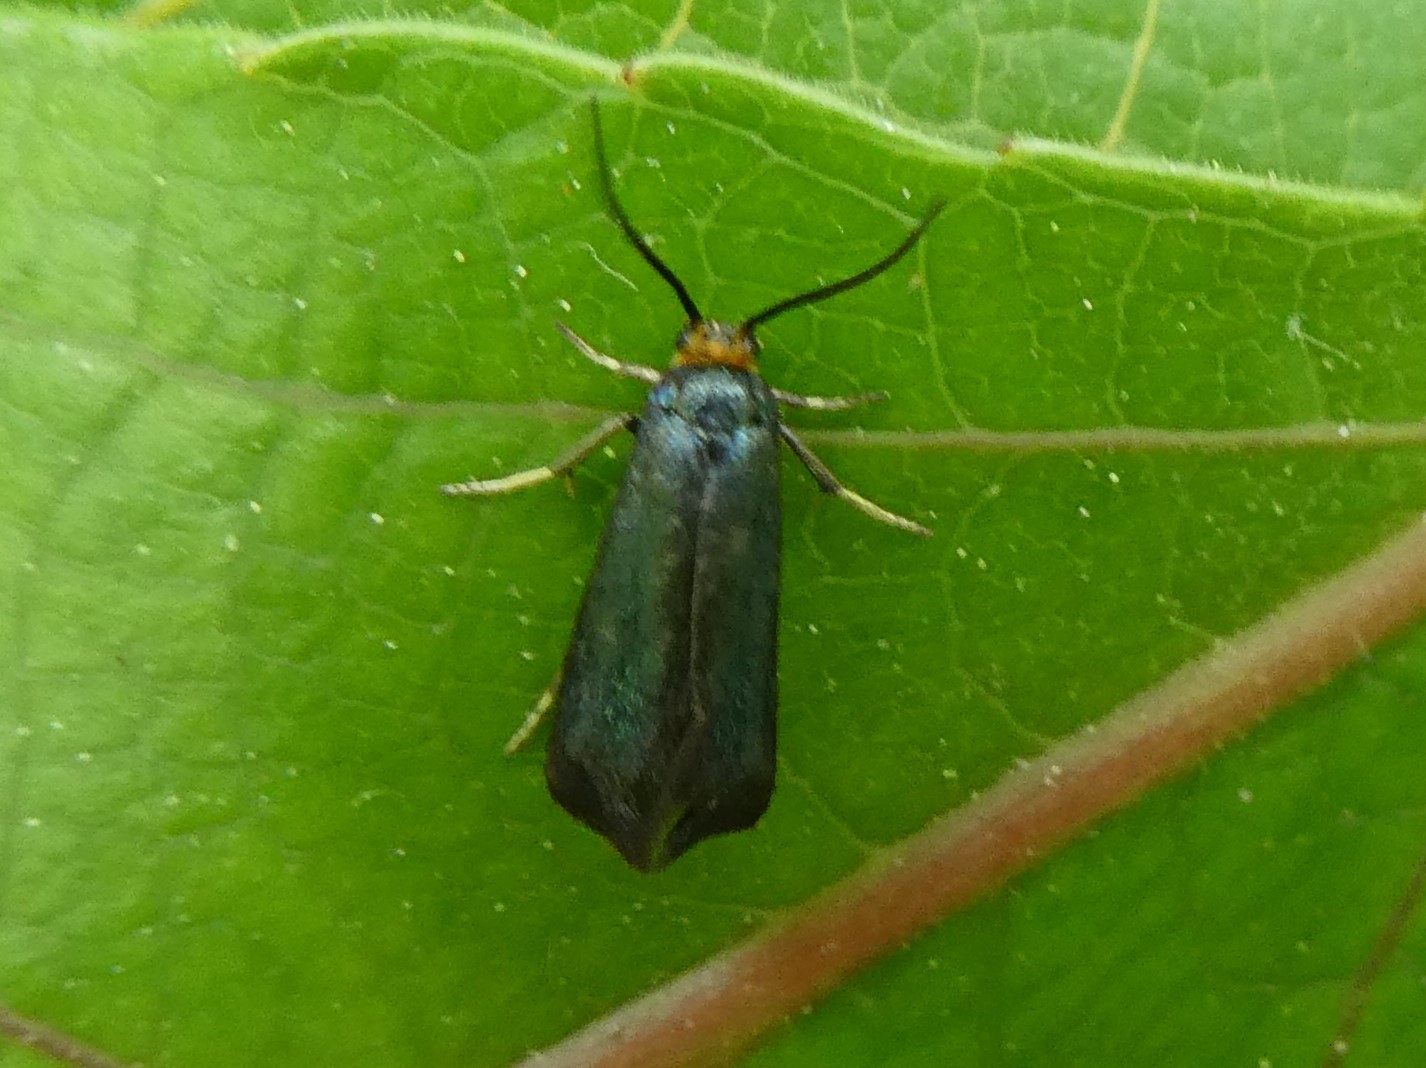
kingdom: Animalia
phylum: Arthropoda
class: Insecta
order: Lepidoptera
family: Incurvariidae
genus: Paraclemensia
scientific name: Paraclemensia acerifoliella
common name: Maple leafcutter
